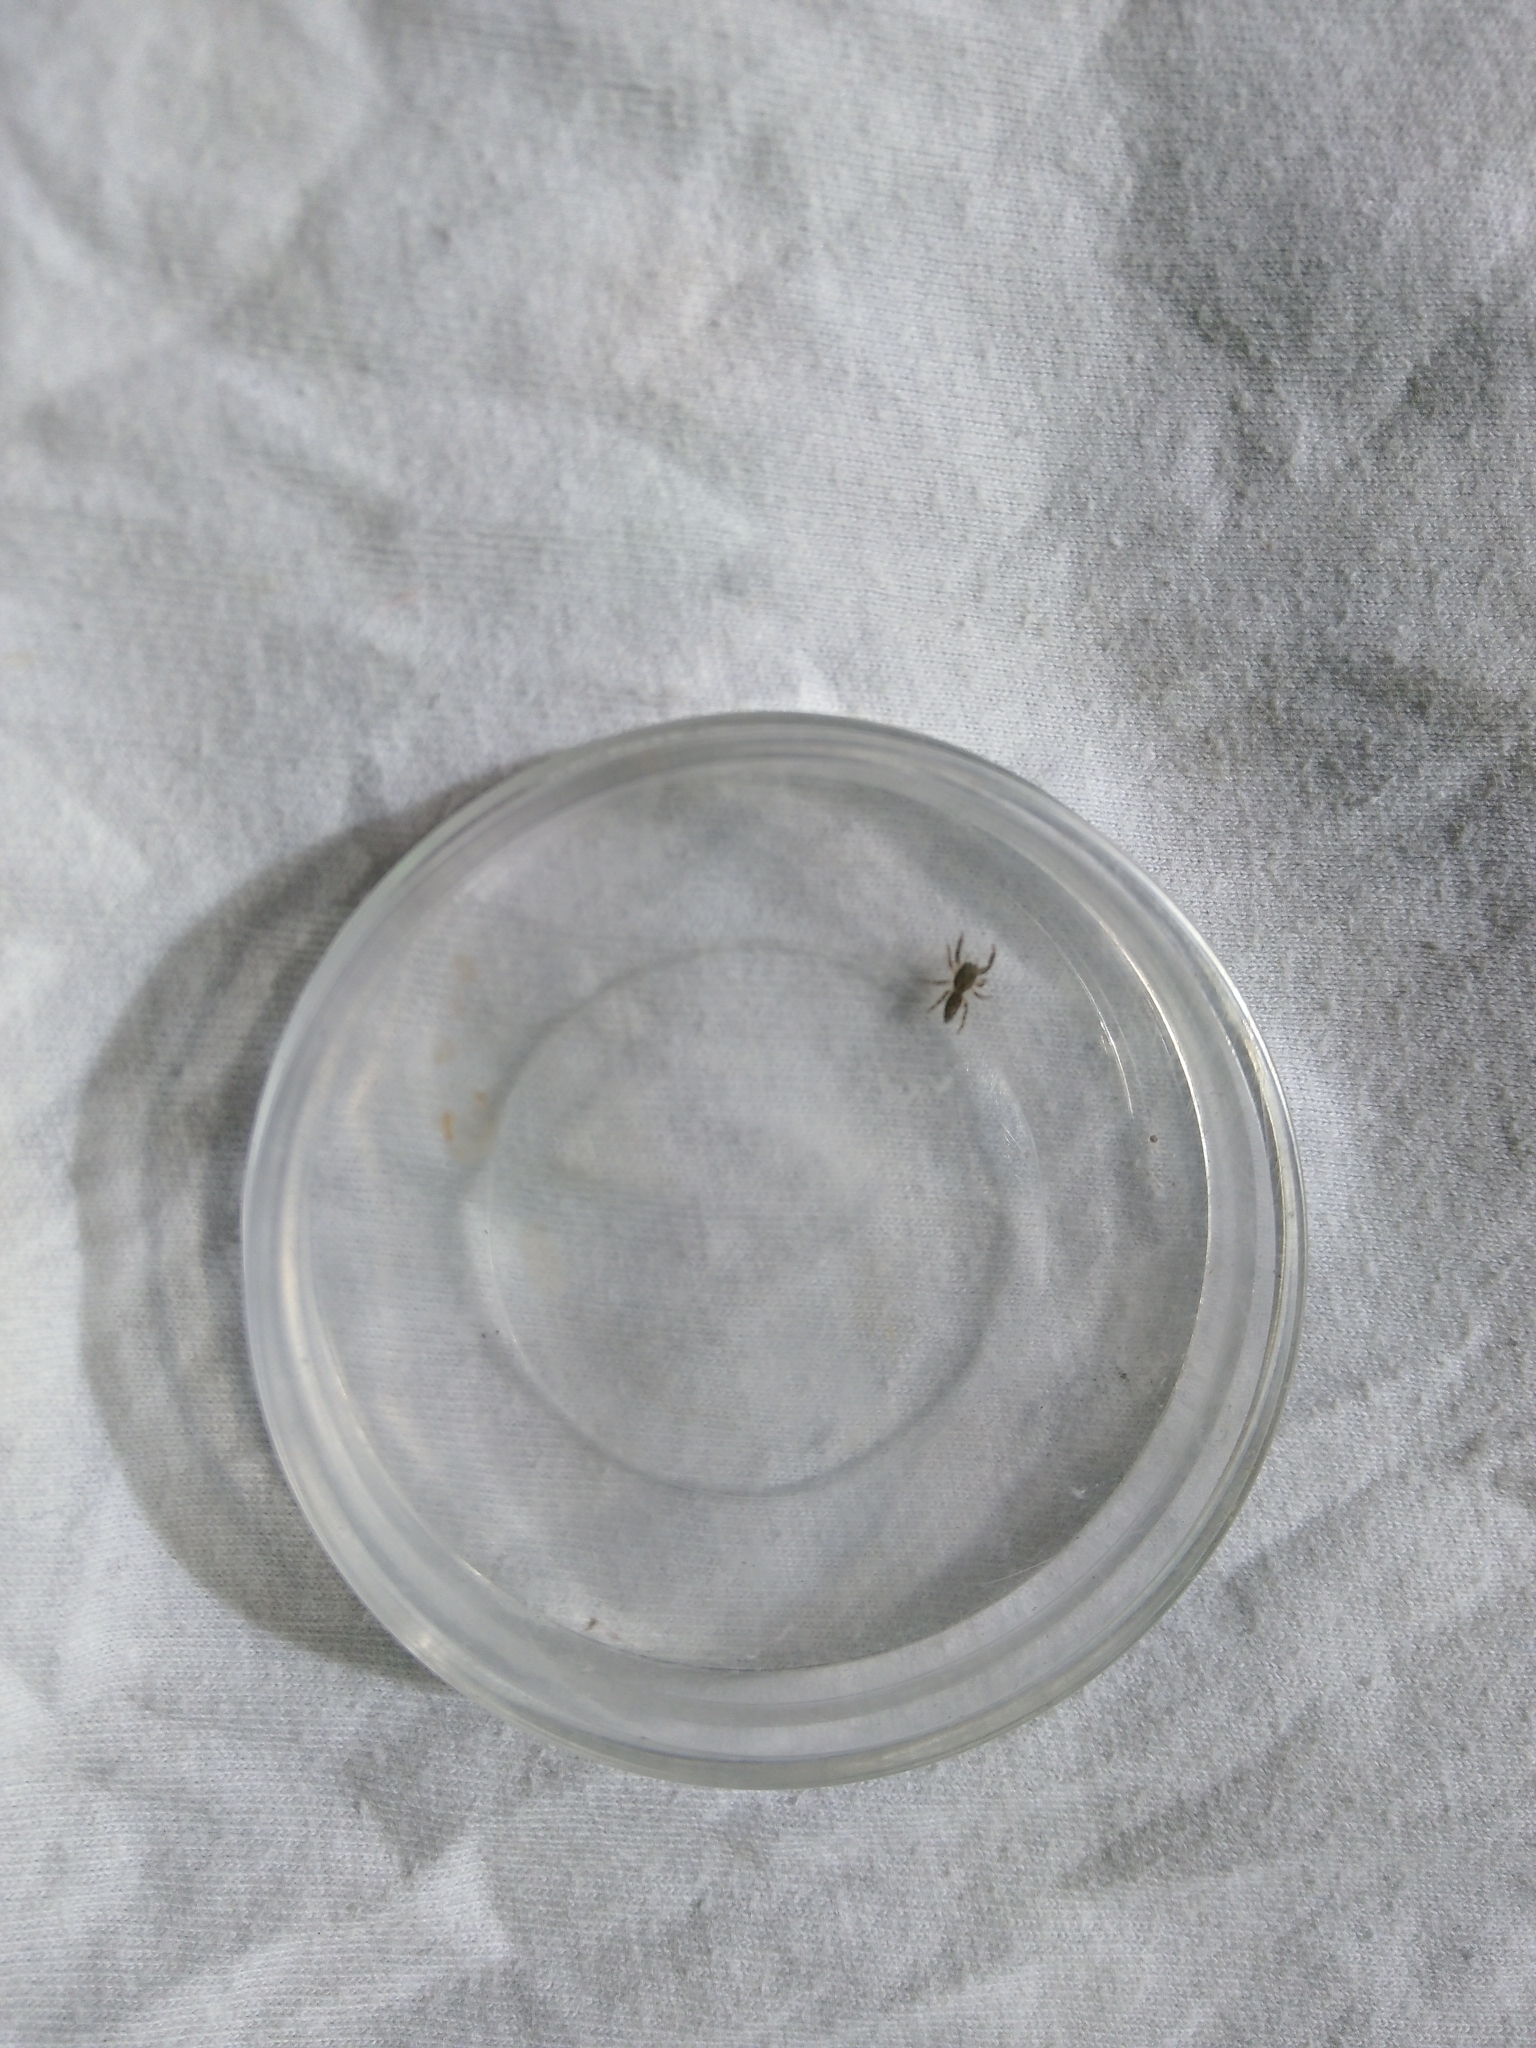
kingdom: Animalia
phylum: Arthropoda
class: Arachnida
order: Araneae
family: Salticidae
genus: Marpissa
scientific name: Marpissa muscosa
